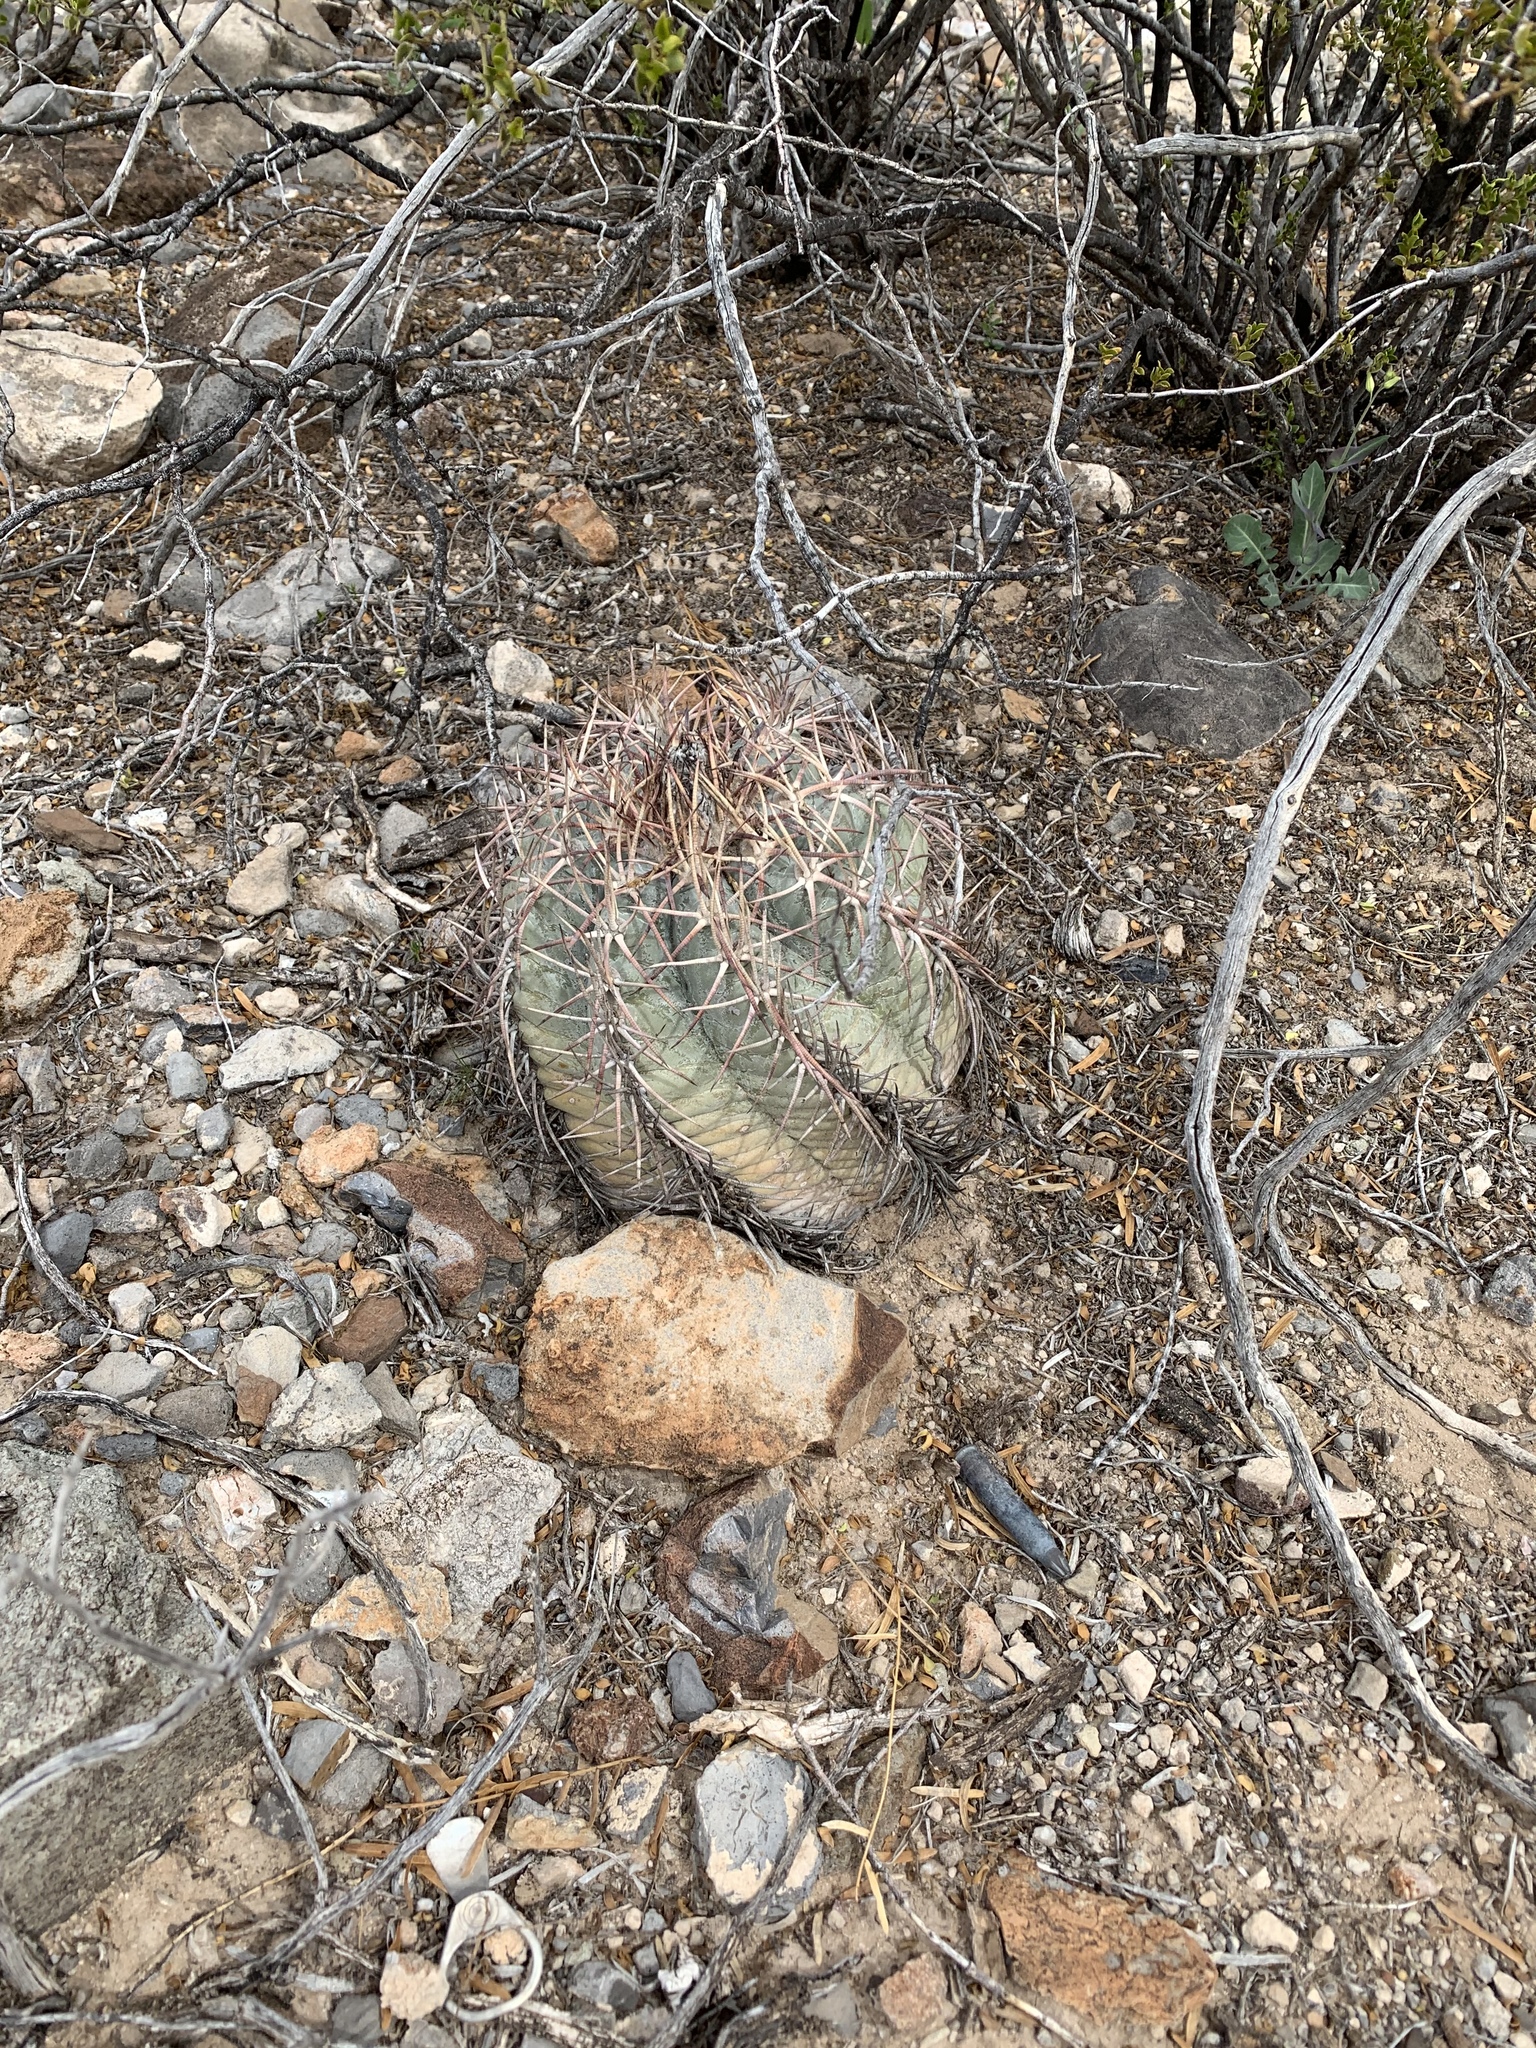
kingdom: Plantae
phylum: Tracheophyta
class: Magnoliopsida
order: Caryophyllales
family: Cactaceae
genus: Echinocactus
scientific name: Echinocactus horizonthalonius
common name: Devilshead
